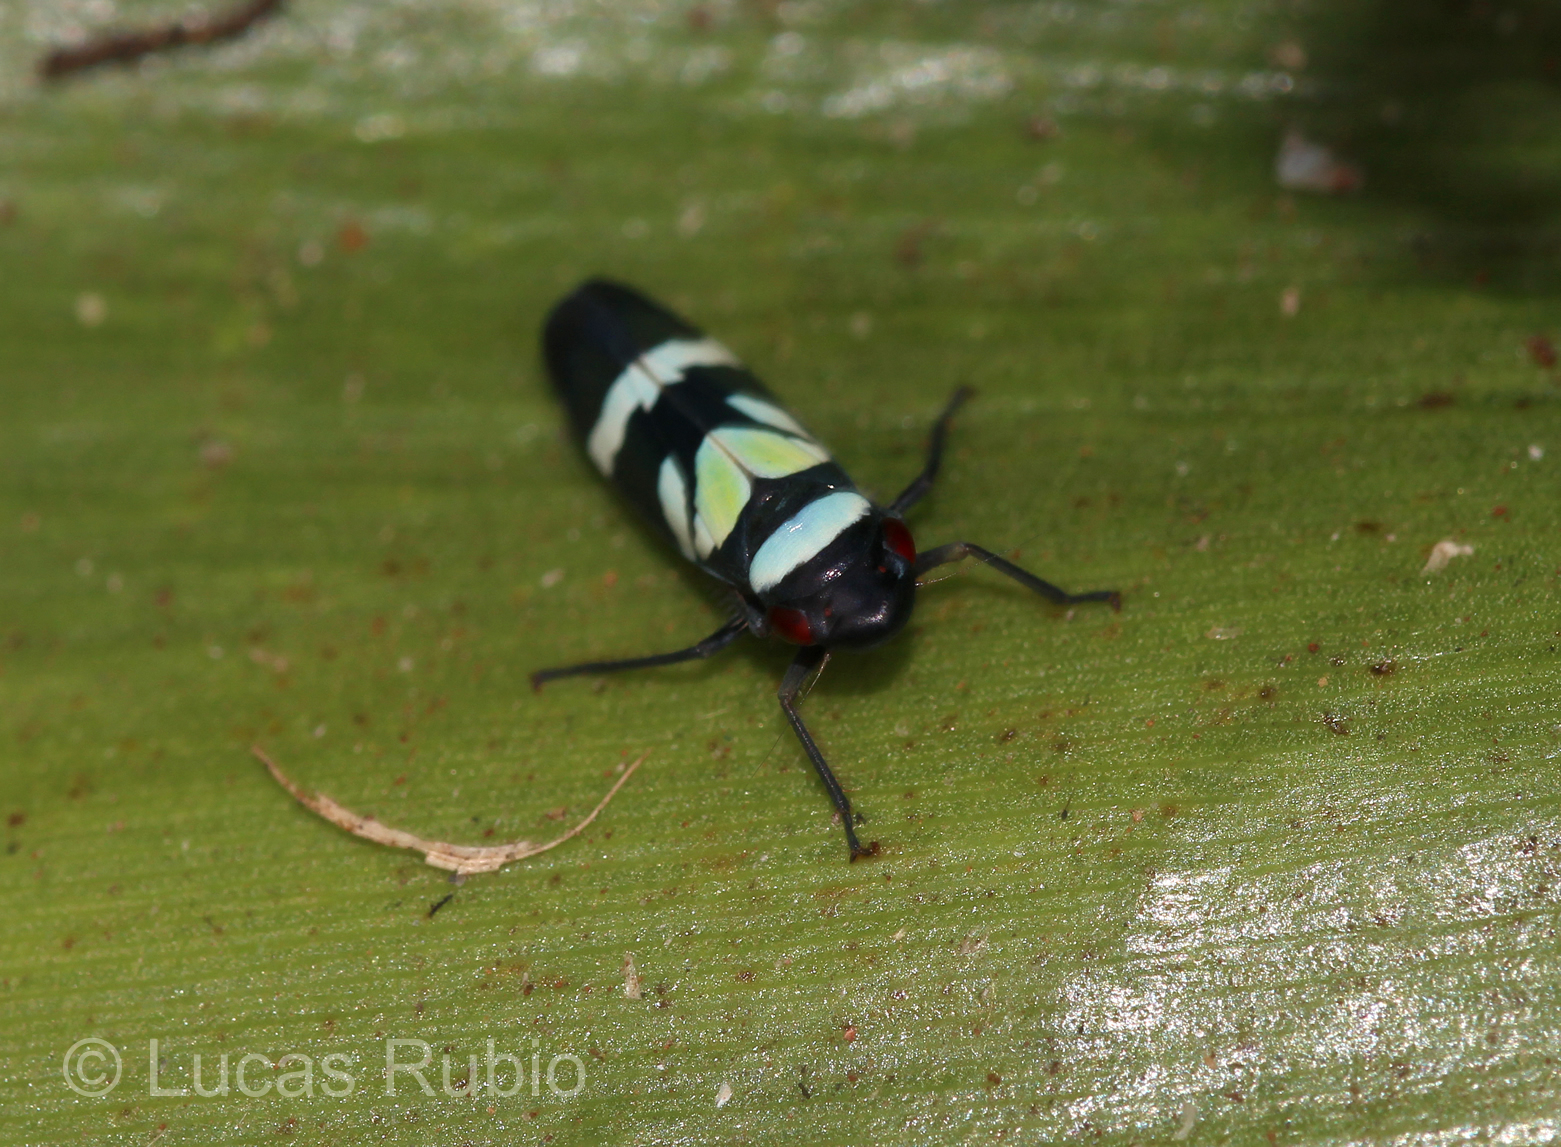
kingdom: Animalia
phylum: Arthropoda
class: Insecta
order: Hemiptera
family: Cicadellidae
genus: Balacha
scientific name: Balacha decorata
